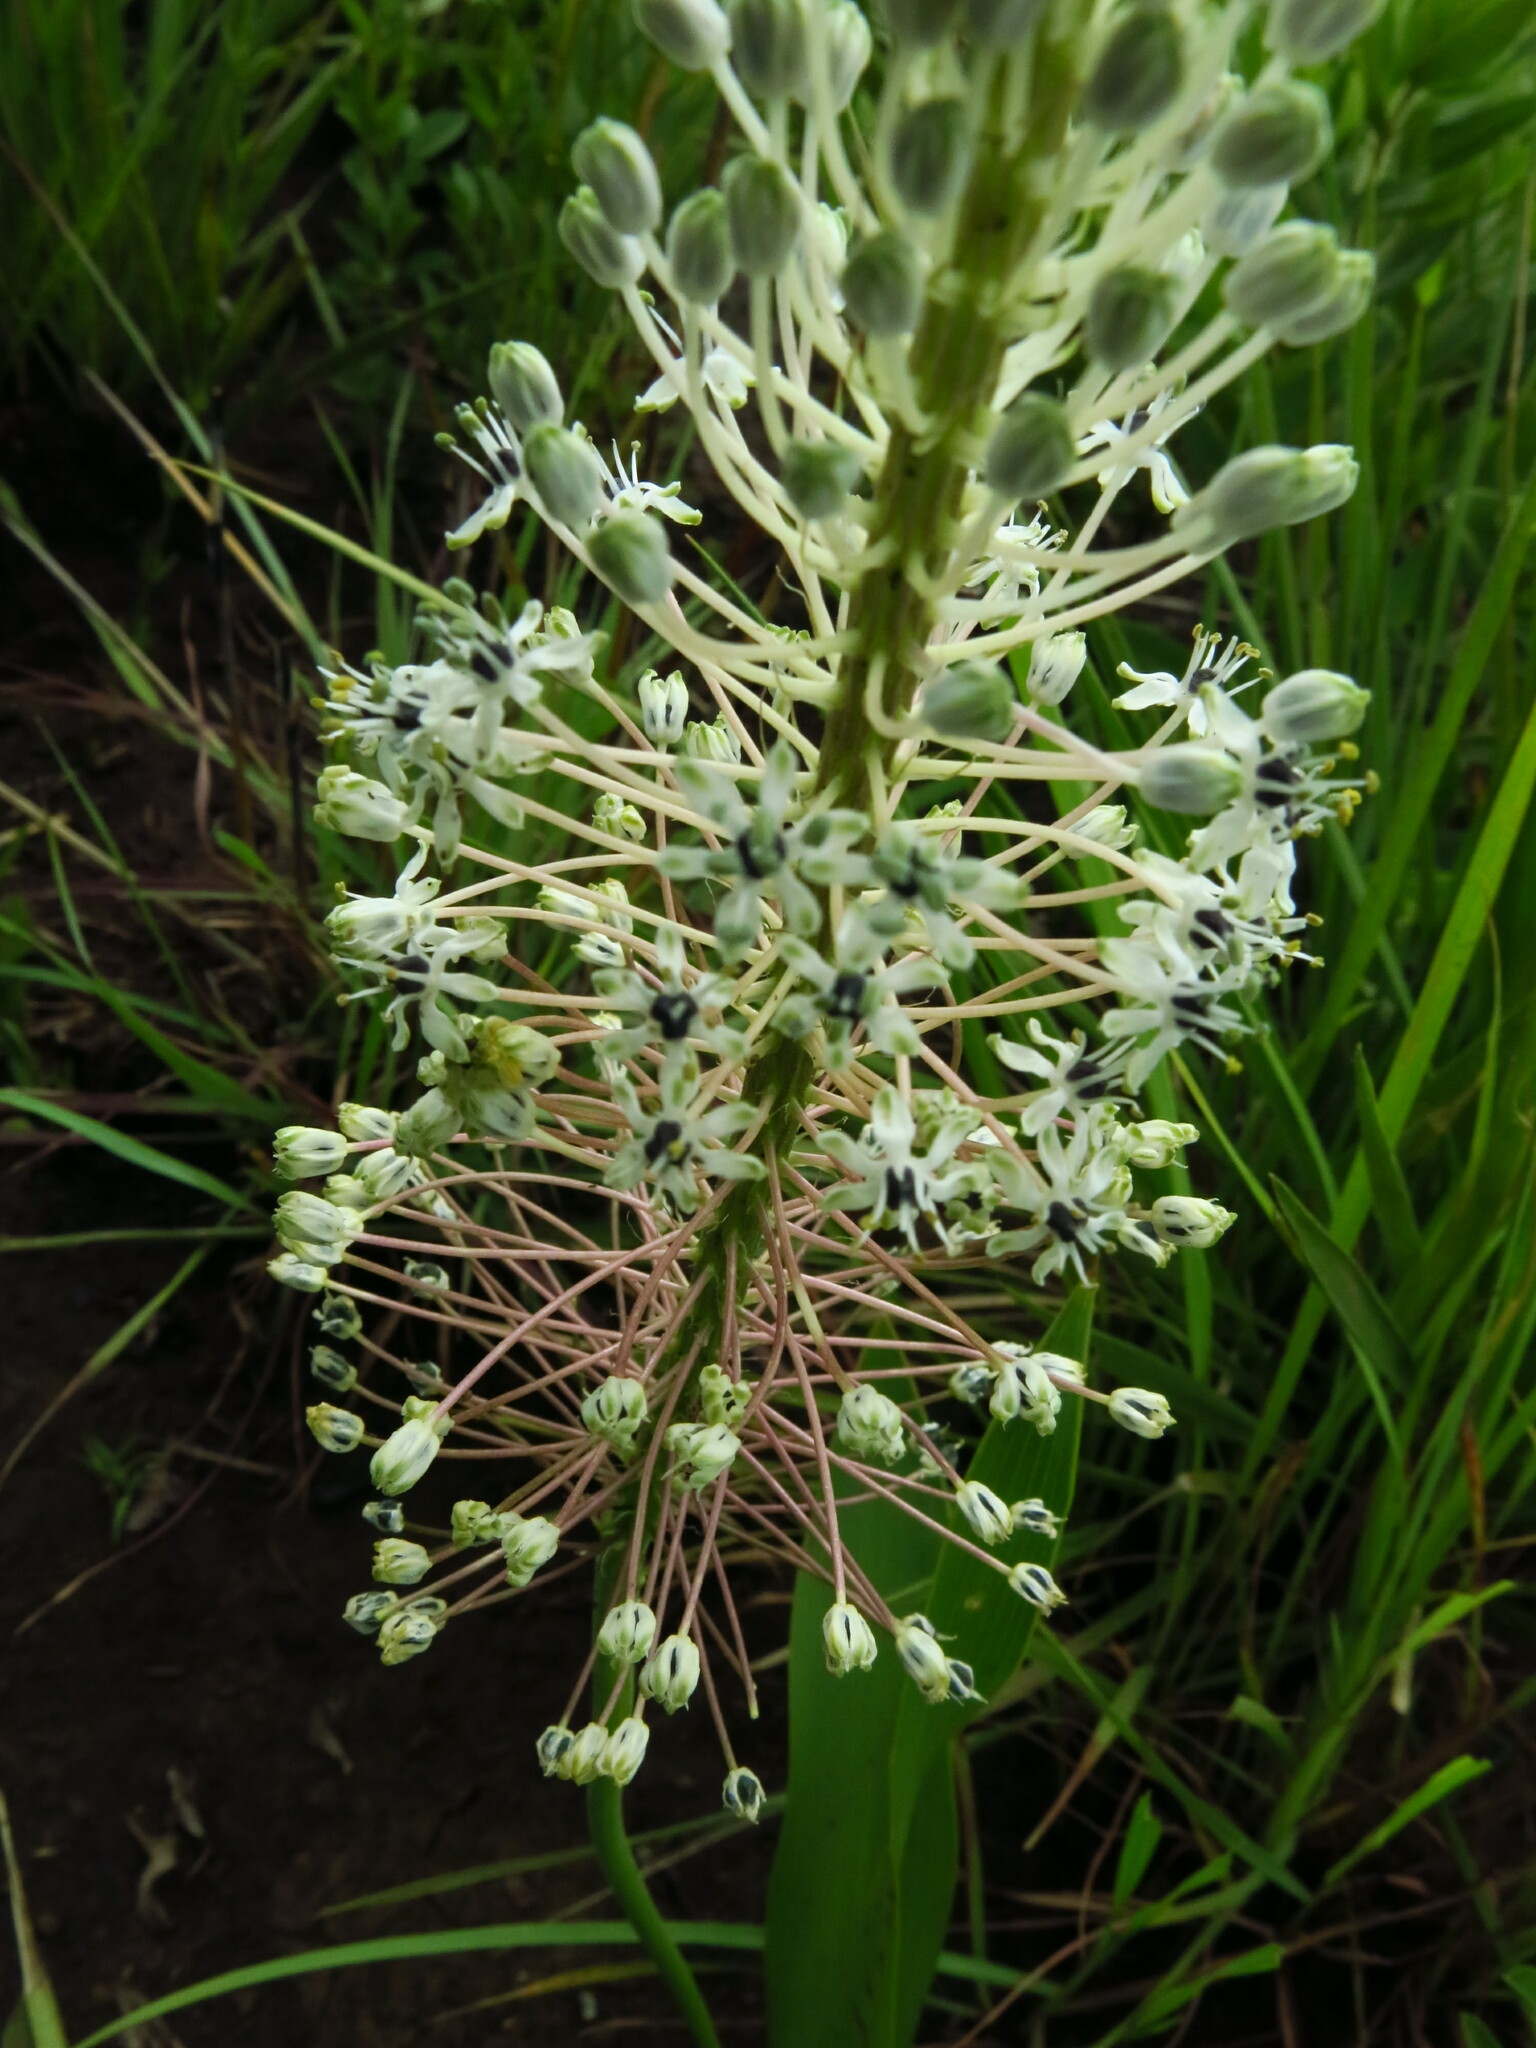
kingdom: Plantae
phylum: Tracheophyta
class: Liliopsida
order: Asparagales
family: Asparagaceae
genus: Schizocarphus
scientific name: Schizocarphus nervosus
